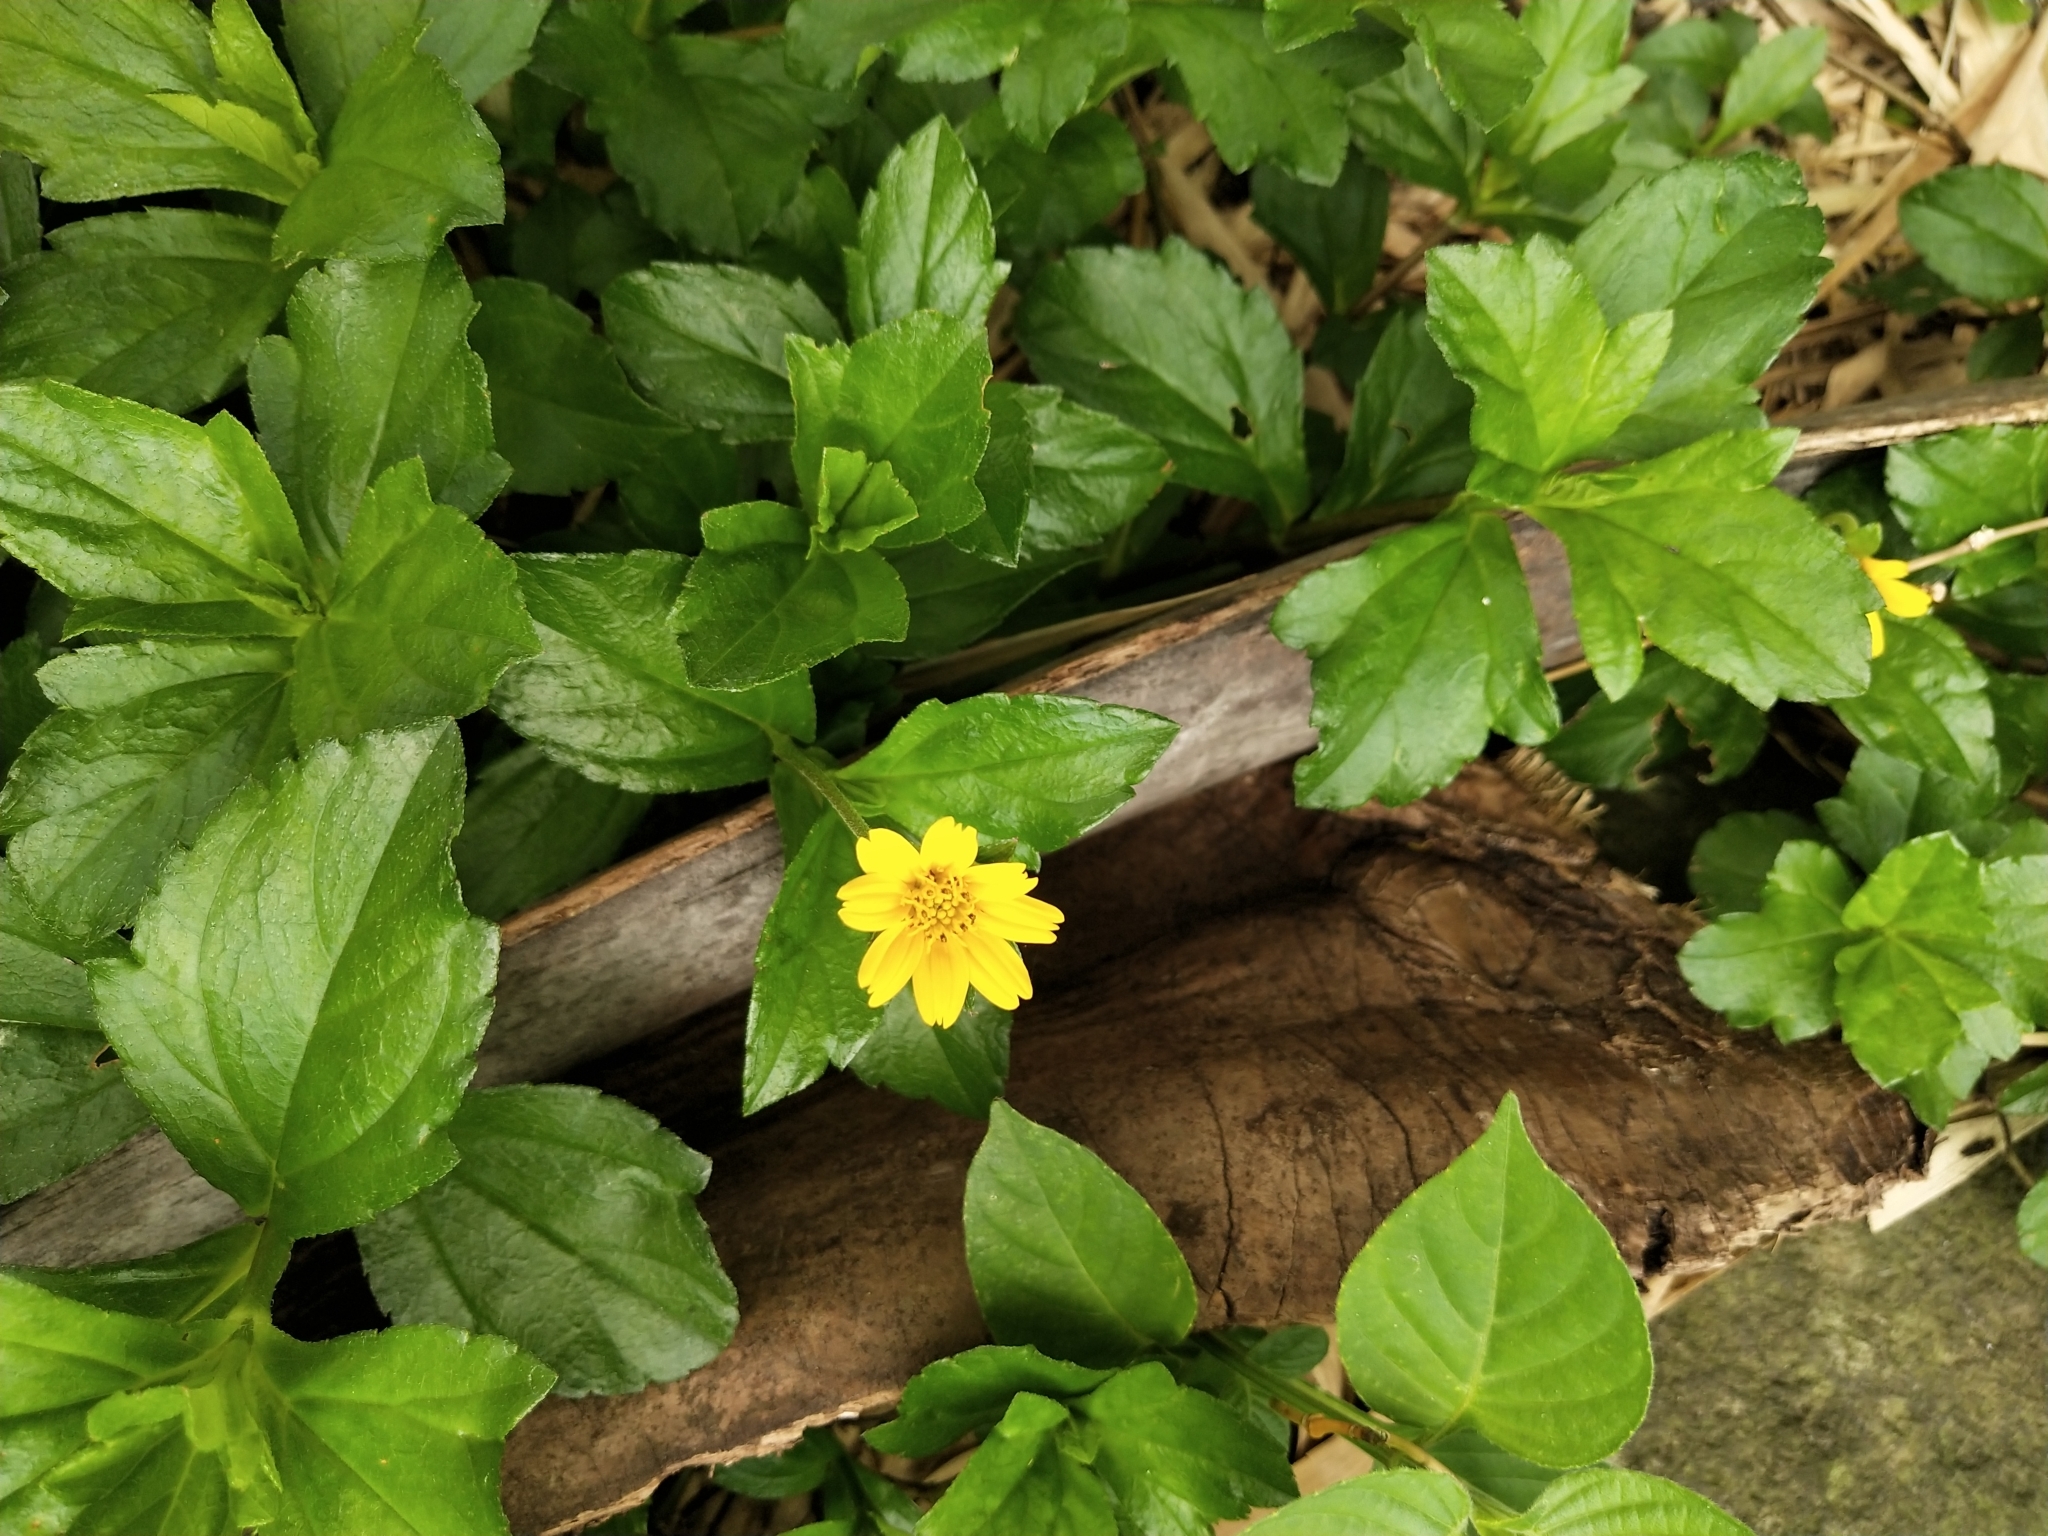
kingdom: Plantae
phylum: Tracheophyta
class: Magnoliopsida
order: Asterales
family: Asteraceae
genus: Sphagneticola
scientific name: Sphagneticola trilobata
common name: Bay biscayne creeping-oxeye
